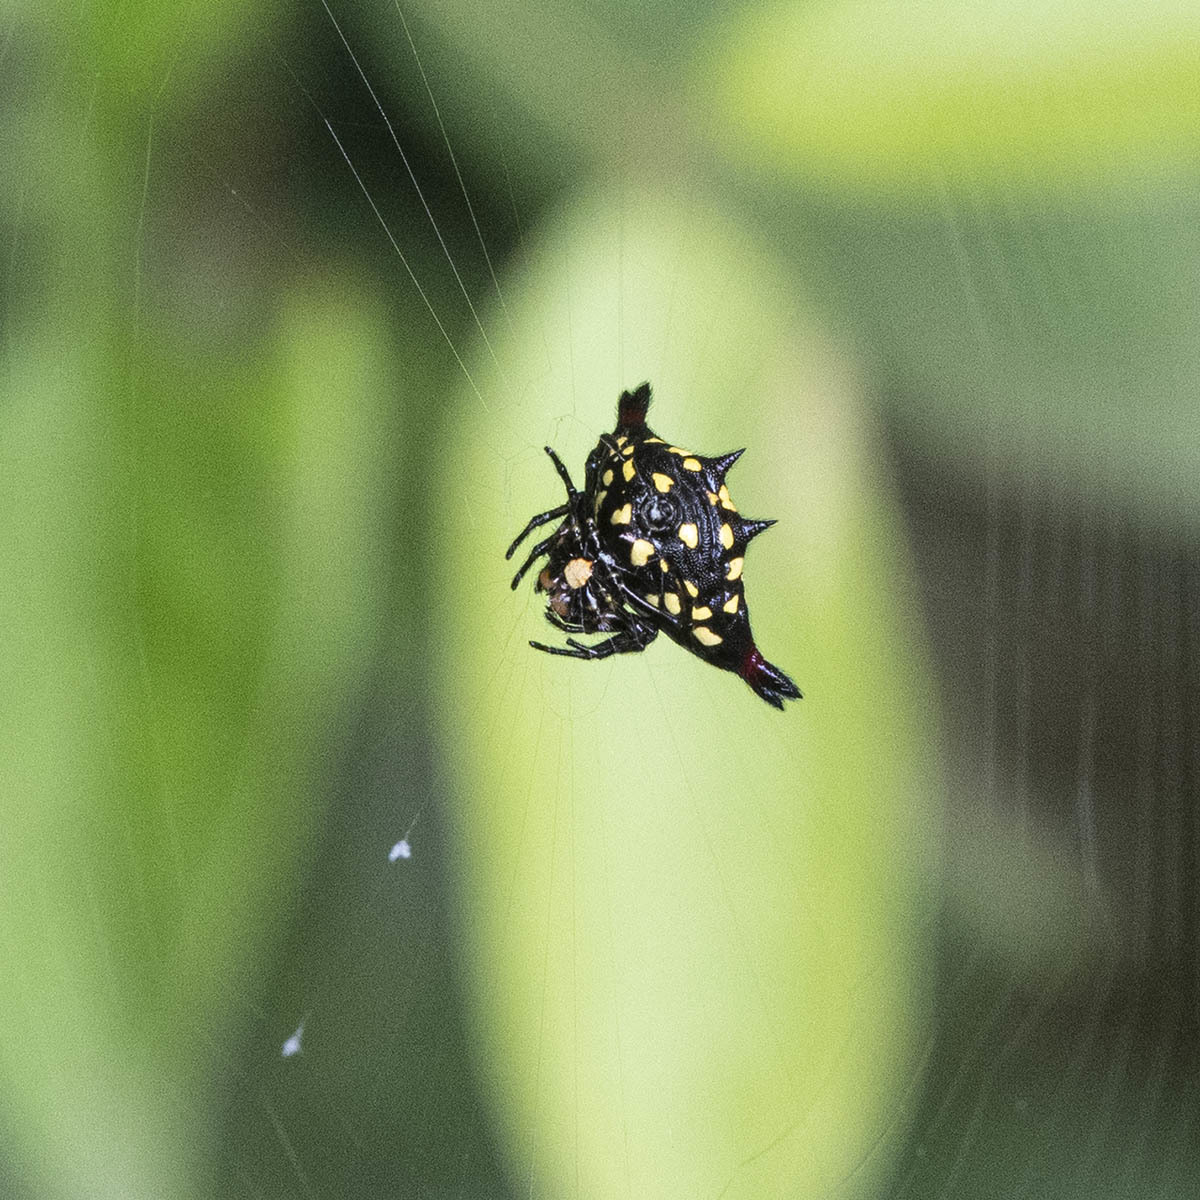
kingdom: Animalia
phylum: Arthropoda
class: Arachnida
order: Araneae
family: Araneidae
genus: Gasteracantha
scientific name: Gasteracantha geminata
